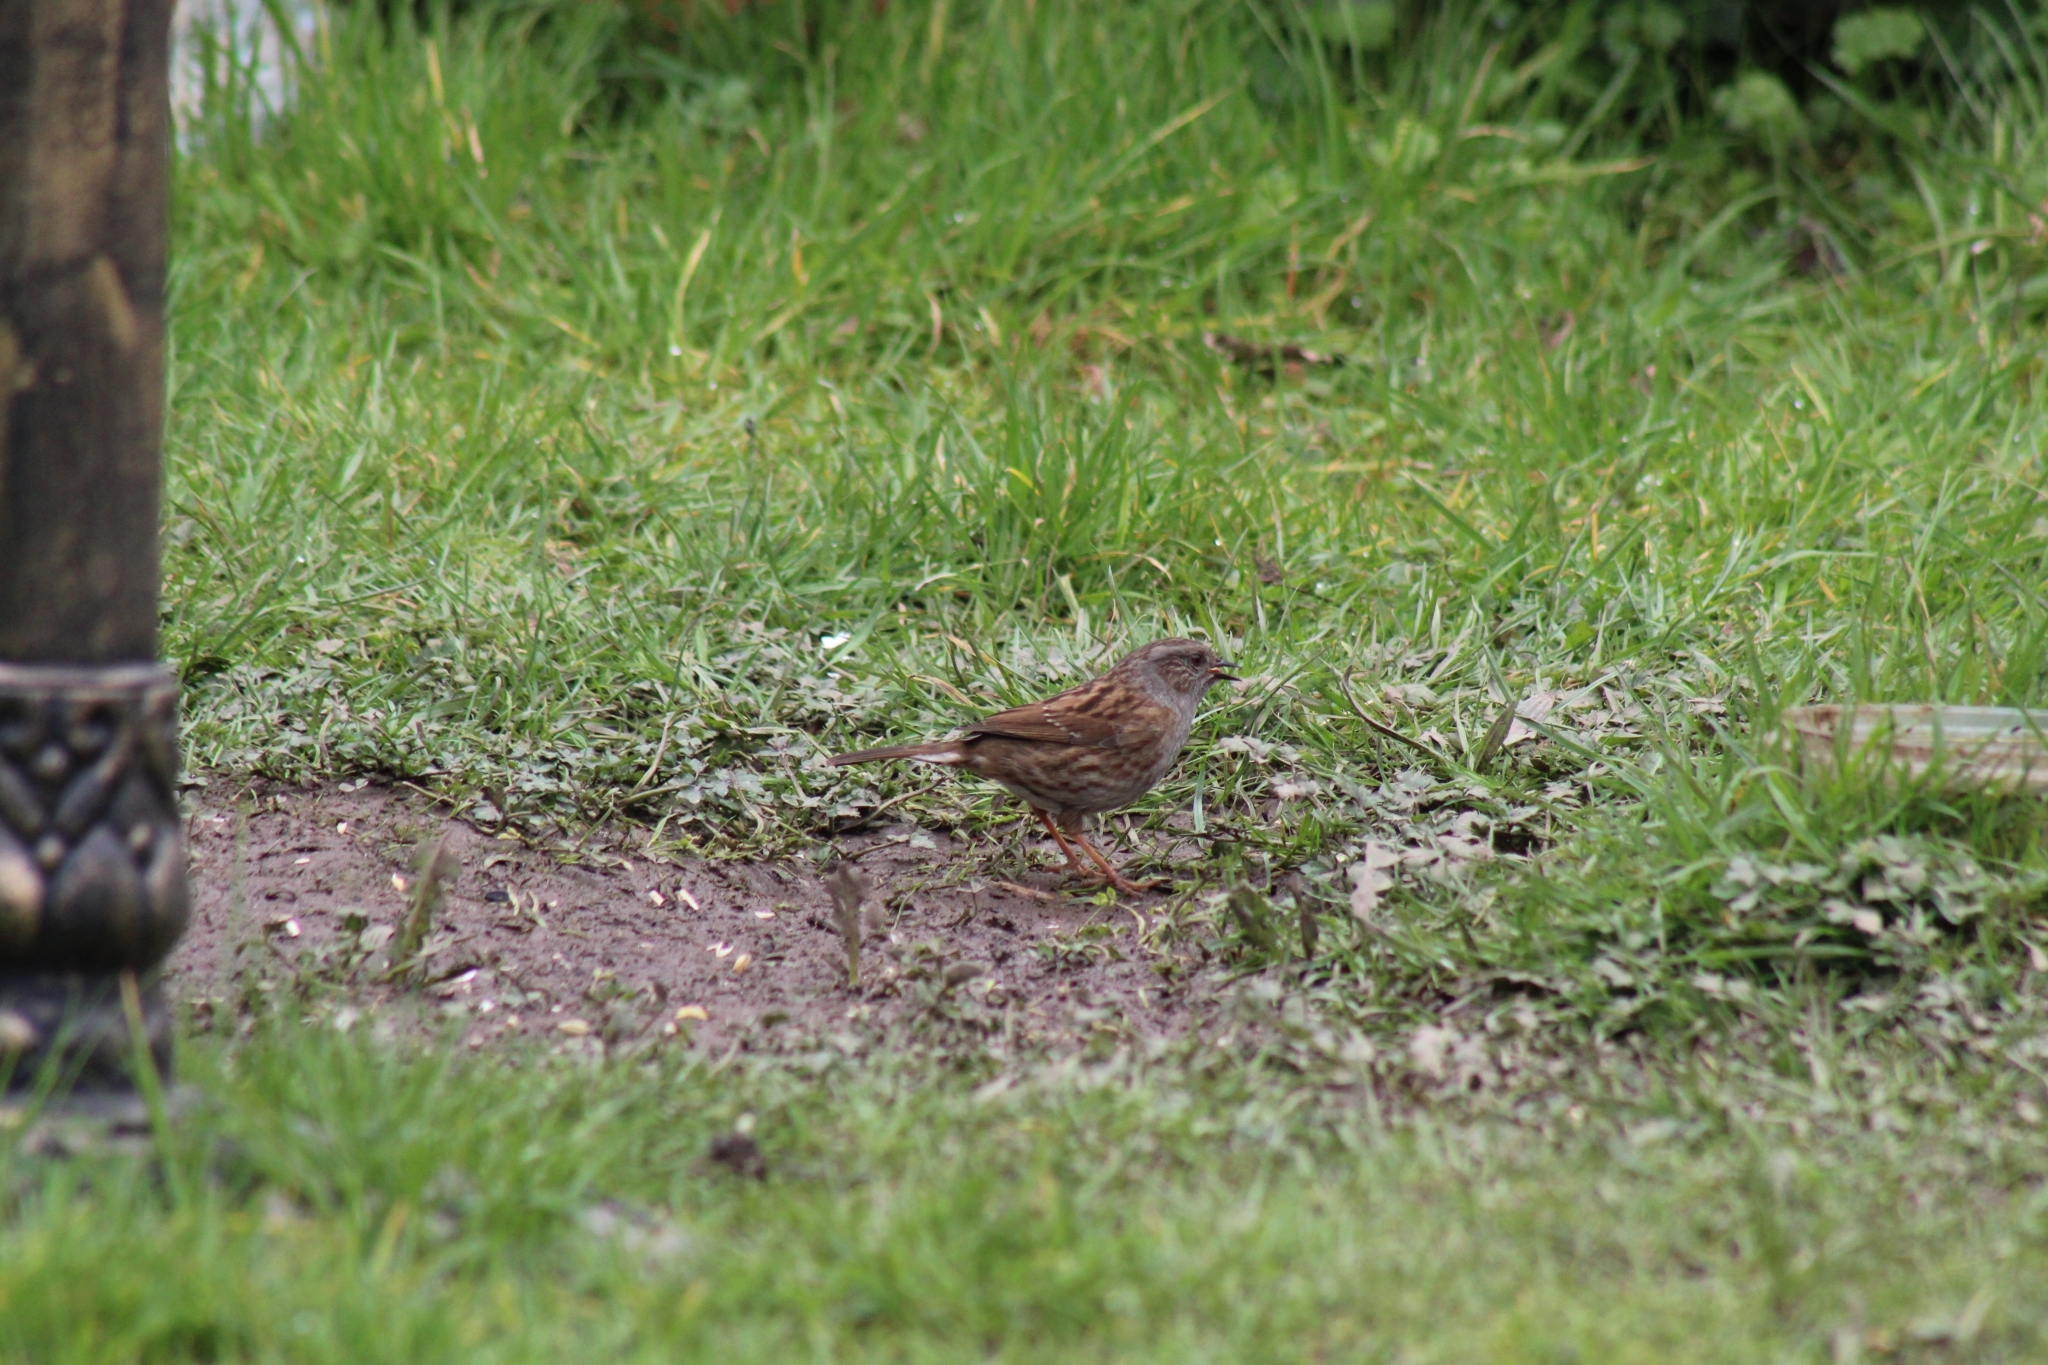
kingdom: Animalia
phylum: Chordata
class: Aves
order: Passeriformes
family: Prunellidae
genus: Prunella
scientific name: Prunella modularis
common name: Dunnock
